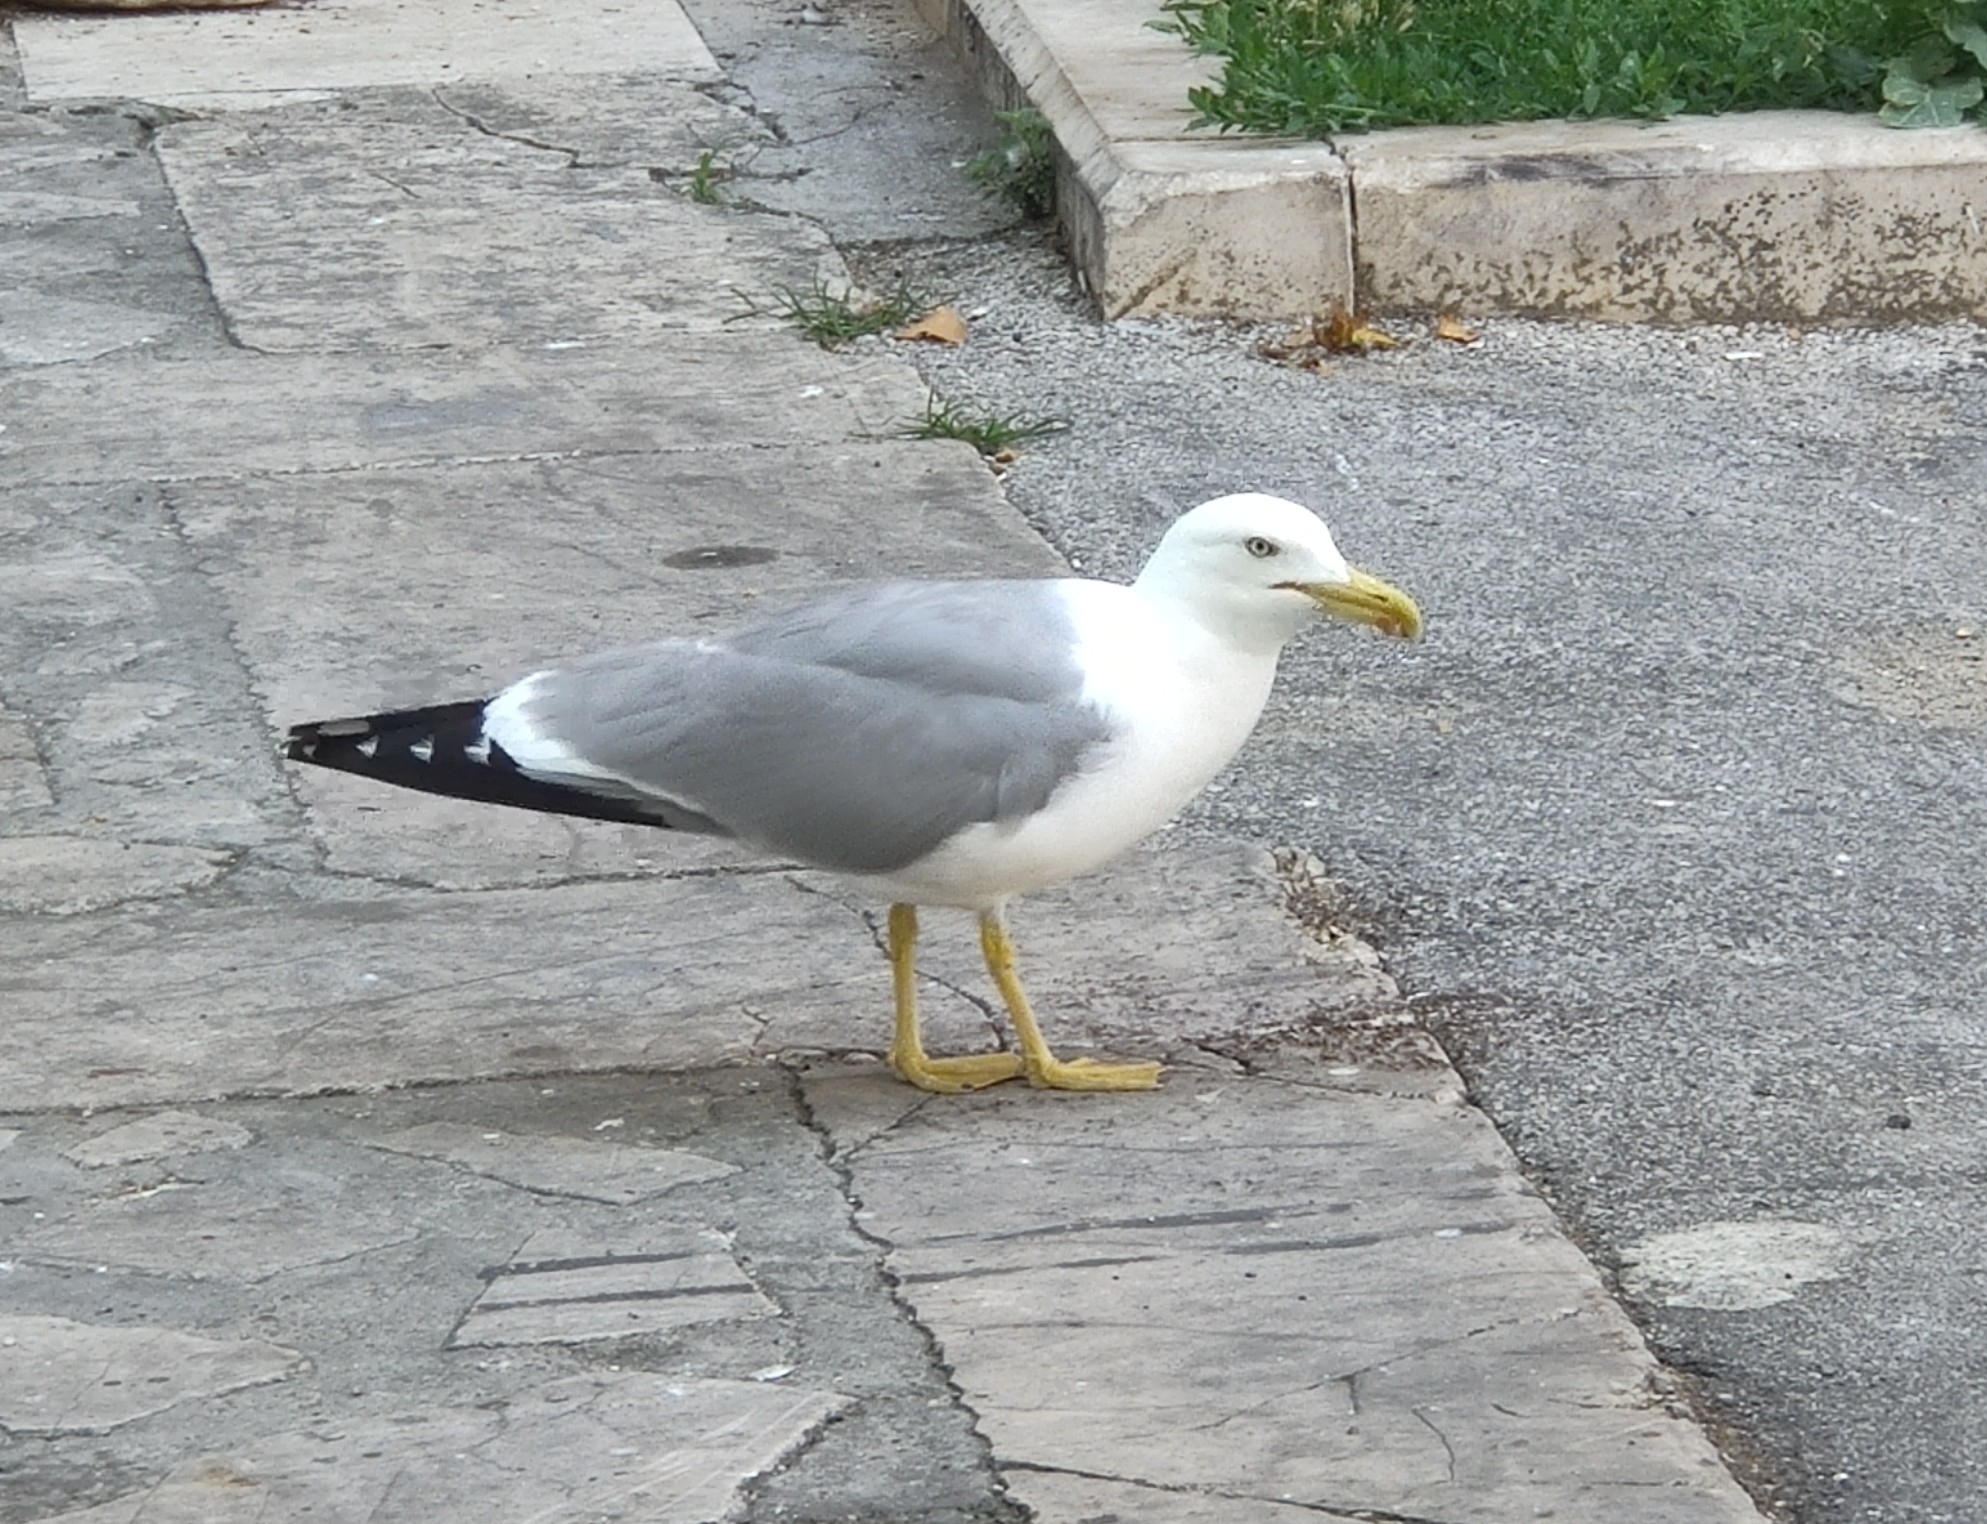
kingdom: Animalia
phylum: Chordata
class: Aves
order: Charadriiformes
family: Laridae
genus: Larus
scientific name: Larus michahellis
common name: Yellow-legged gull
